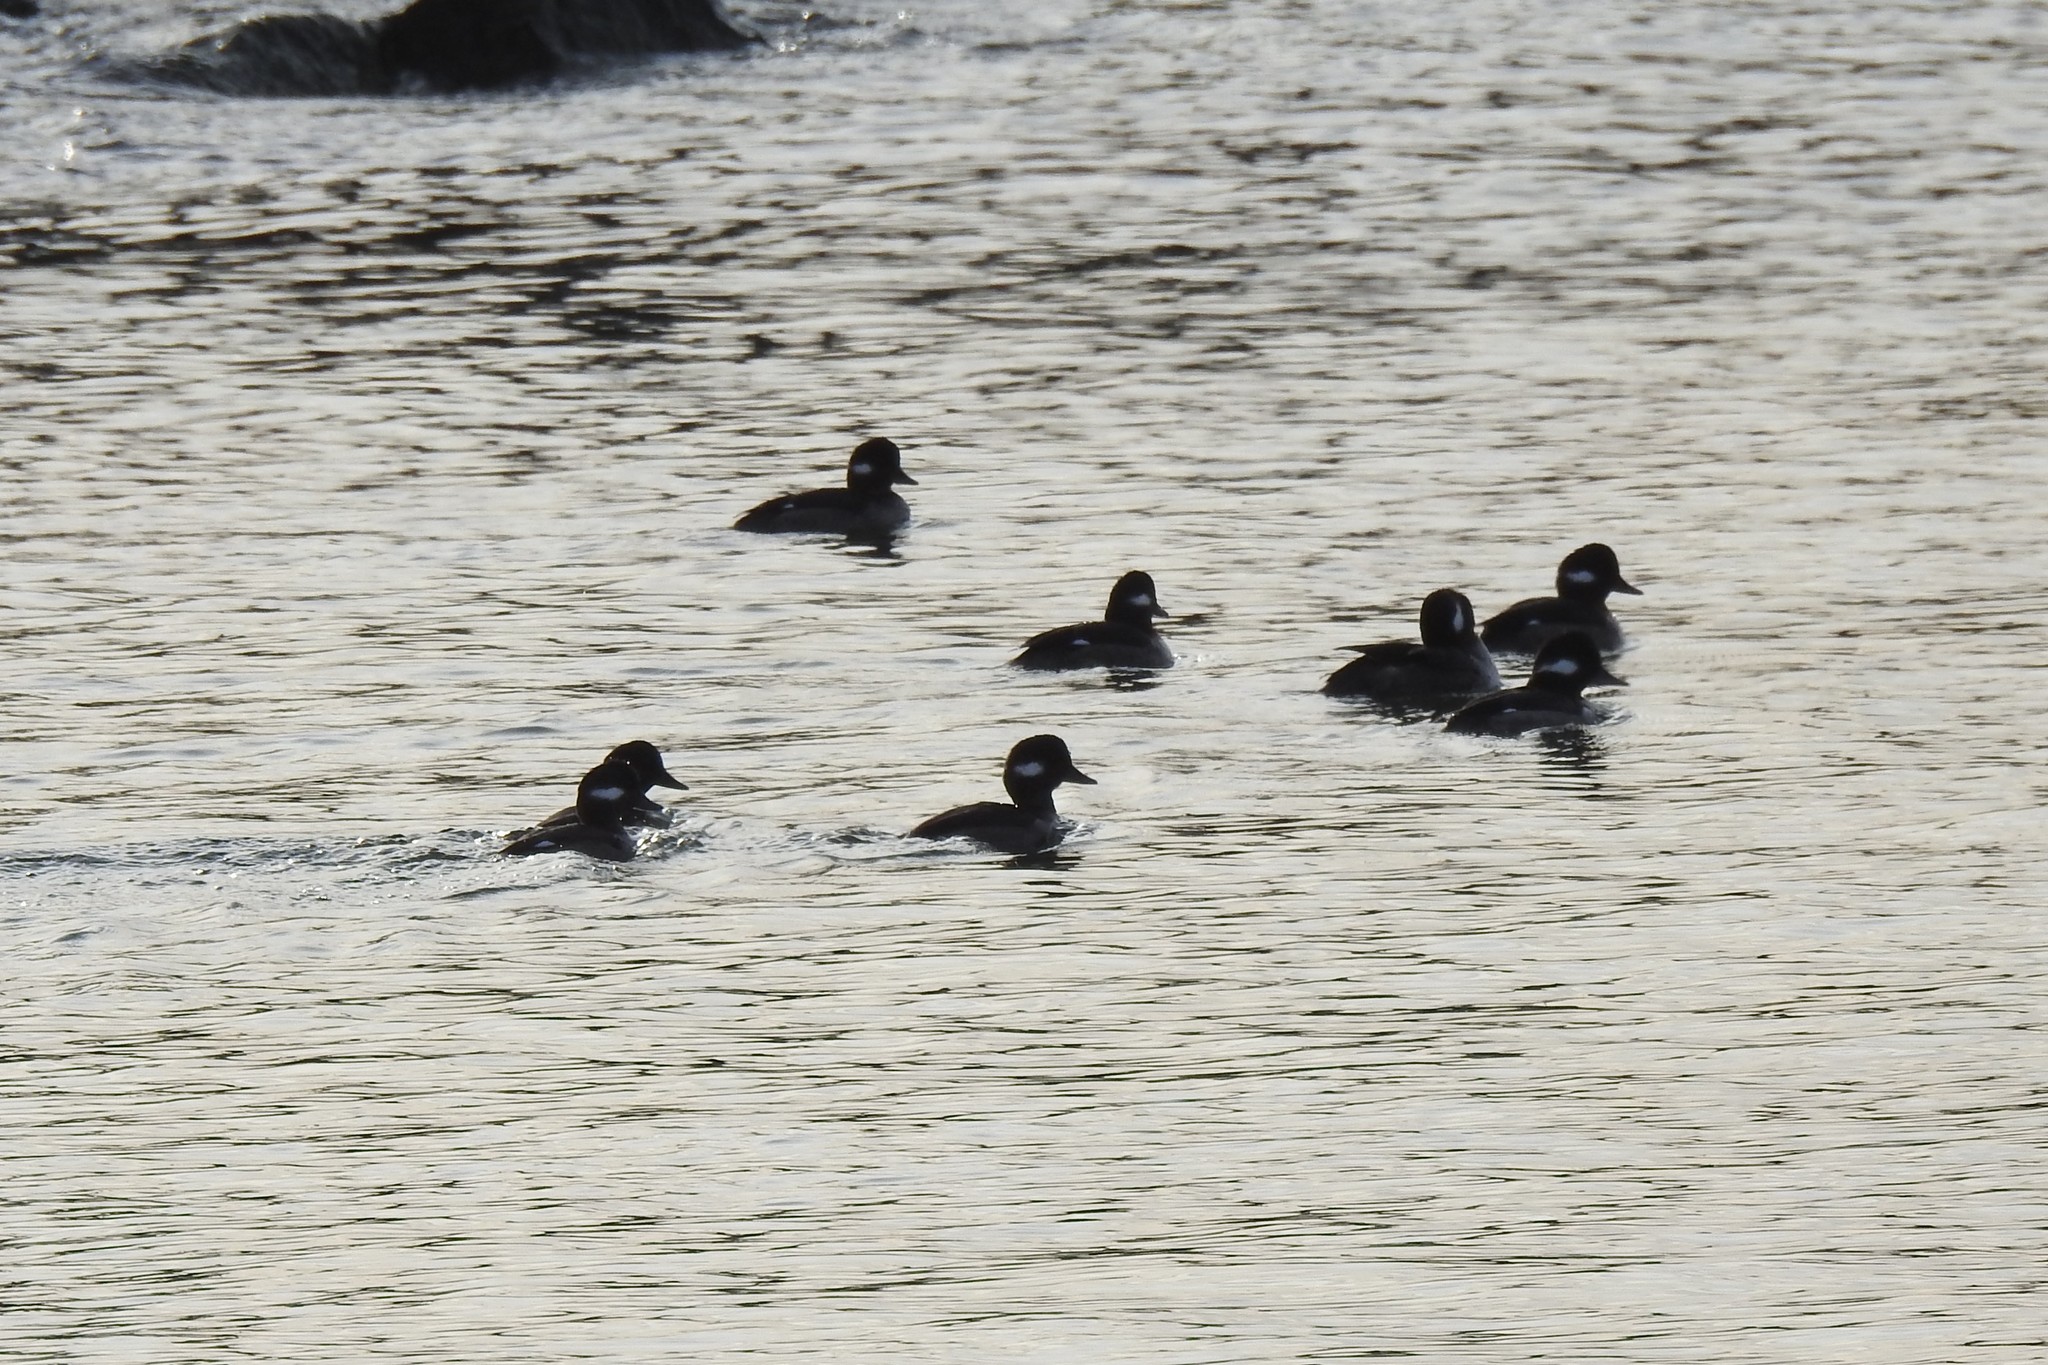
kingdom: Animalia
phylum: Chordata
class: Aves
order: Anseriformes
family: Anatidae
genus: Bucephala
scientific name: Bucephala albeola
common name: Bufflehead
